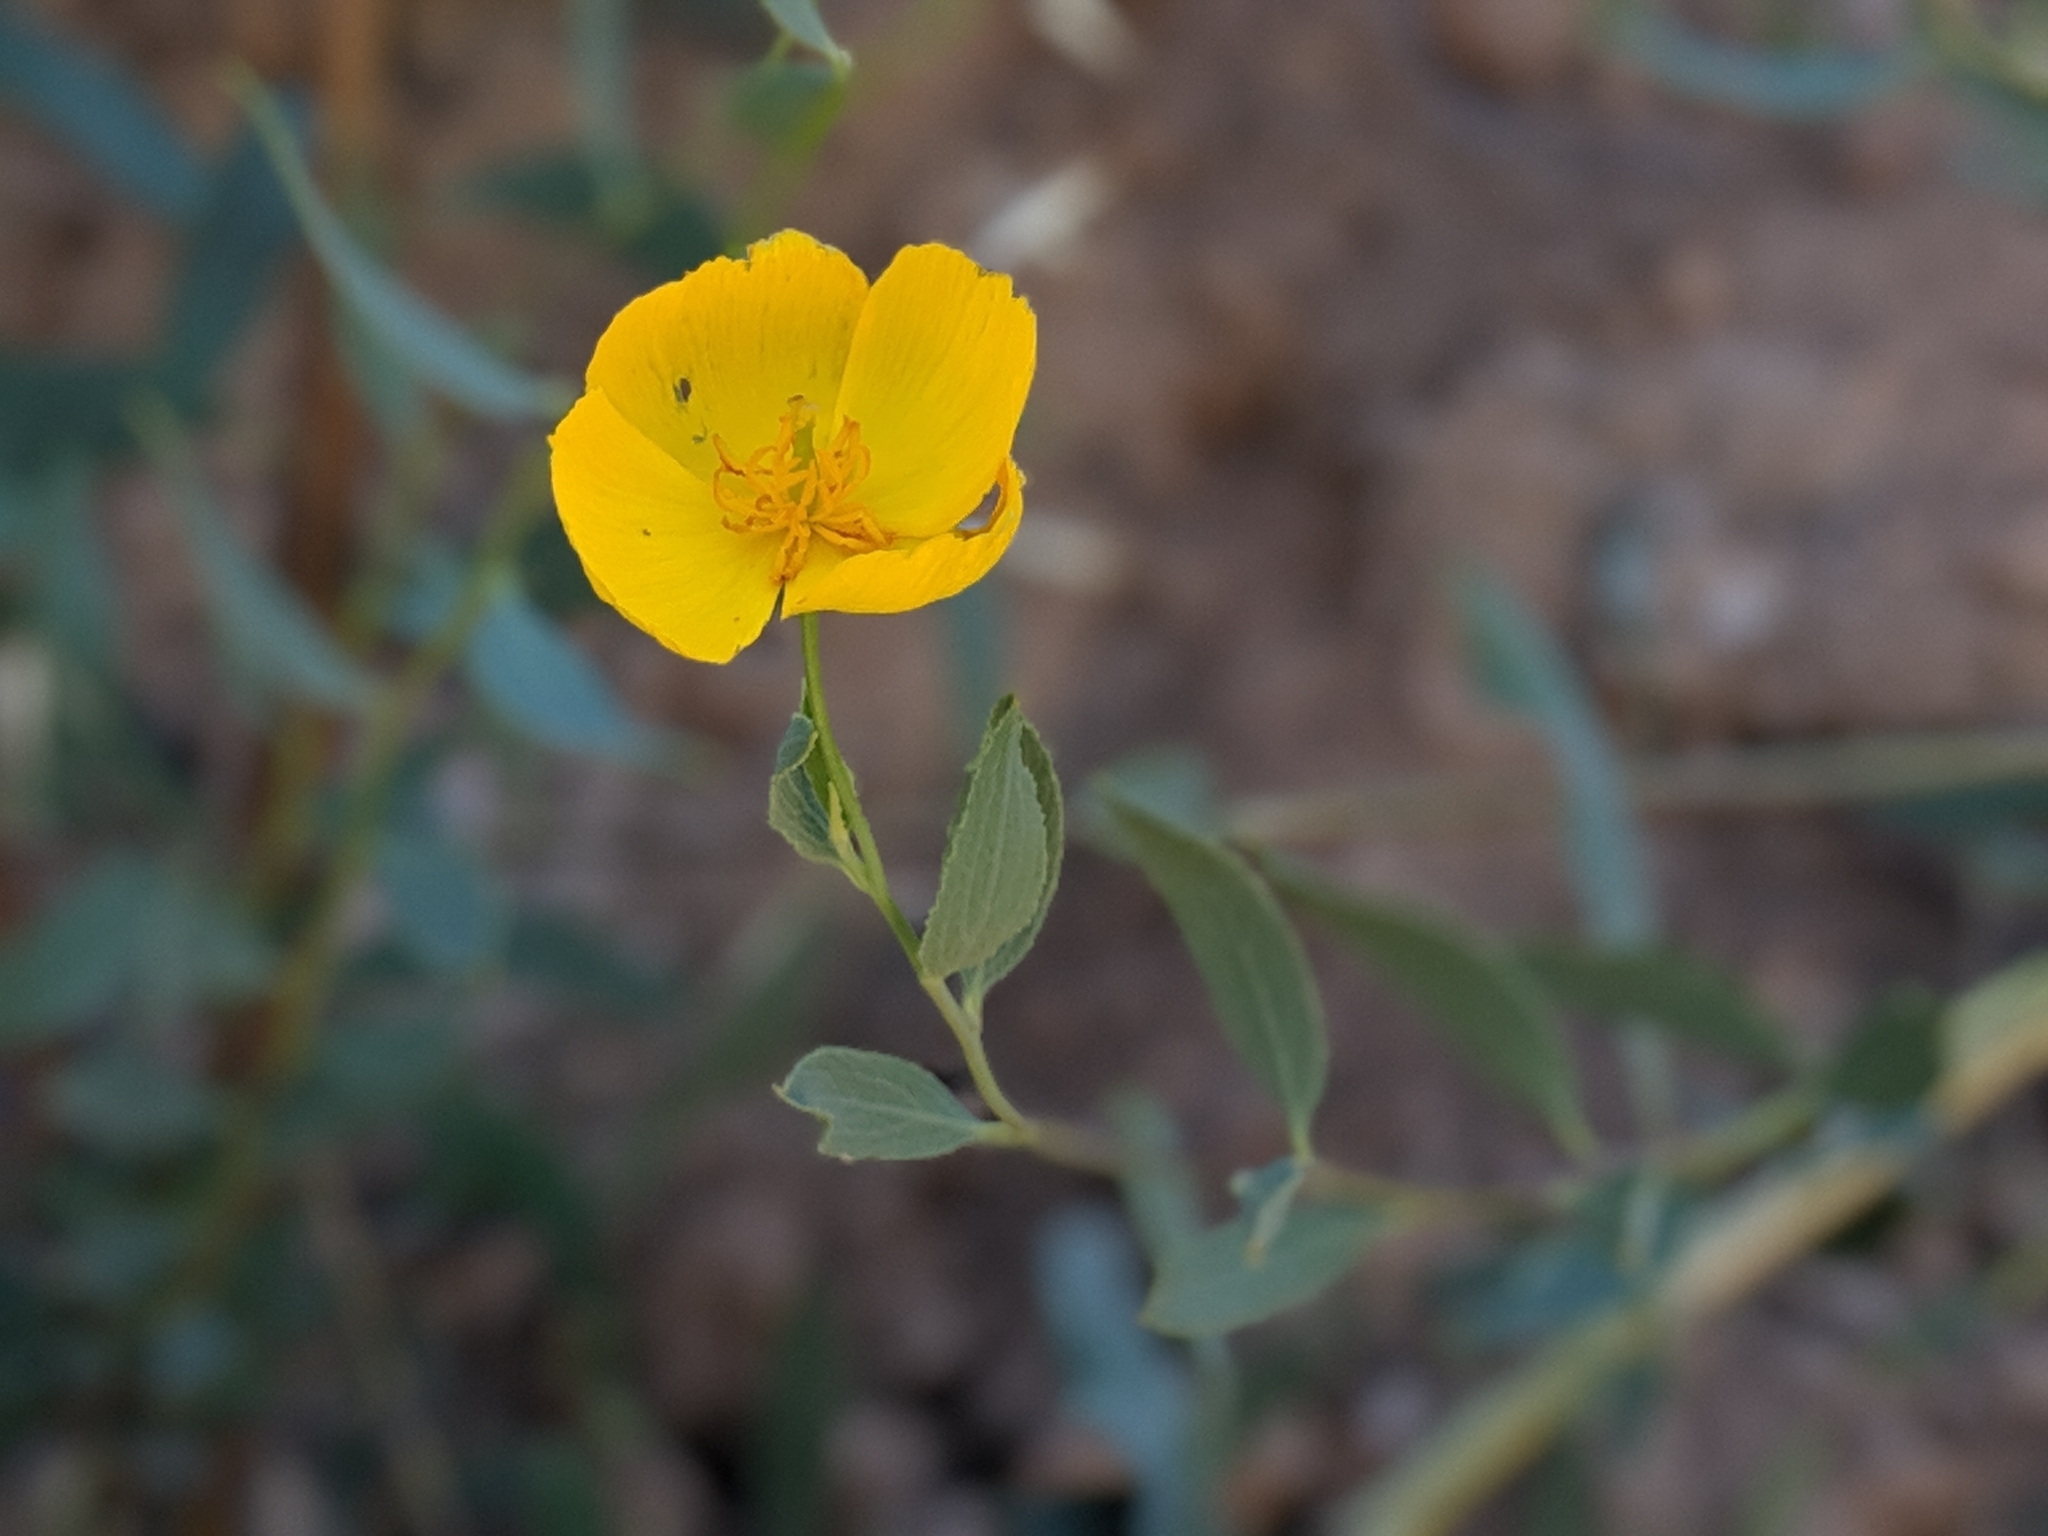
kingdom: Plantae
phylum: Tracheophyta
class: Magnoliopsida
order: Ranunculales
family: Papaveraceae
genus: Dendromecon
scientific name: Dendromecon rigida
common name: Tree poppy
